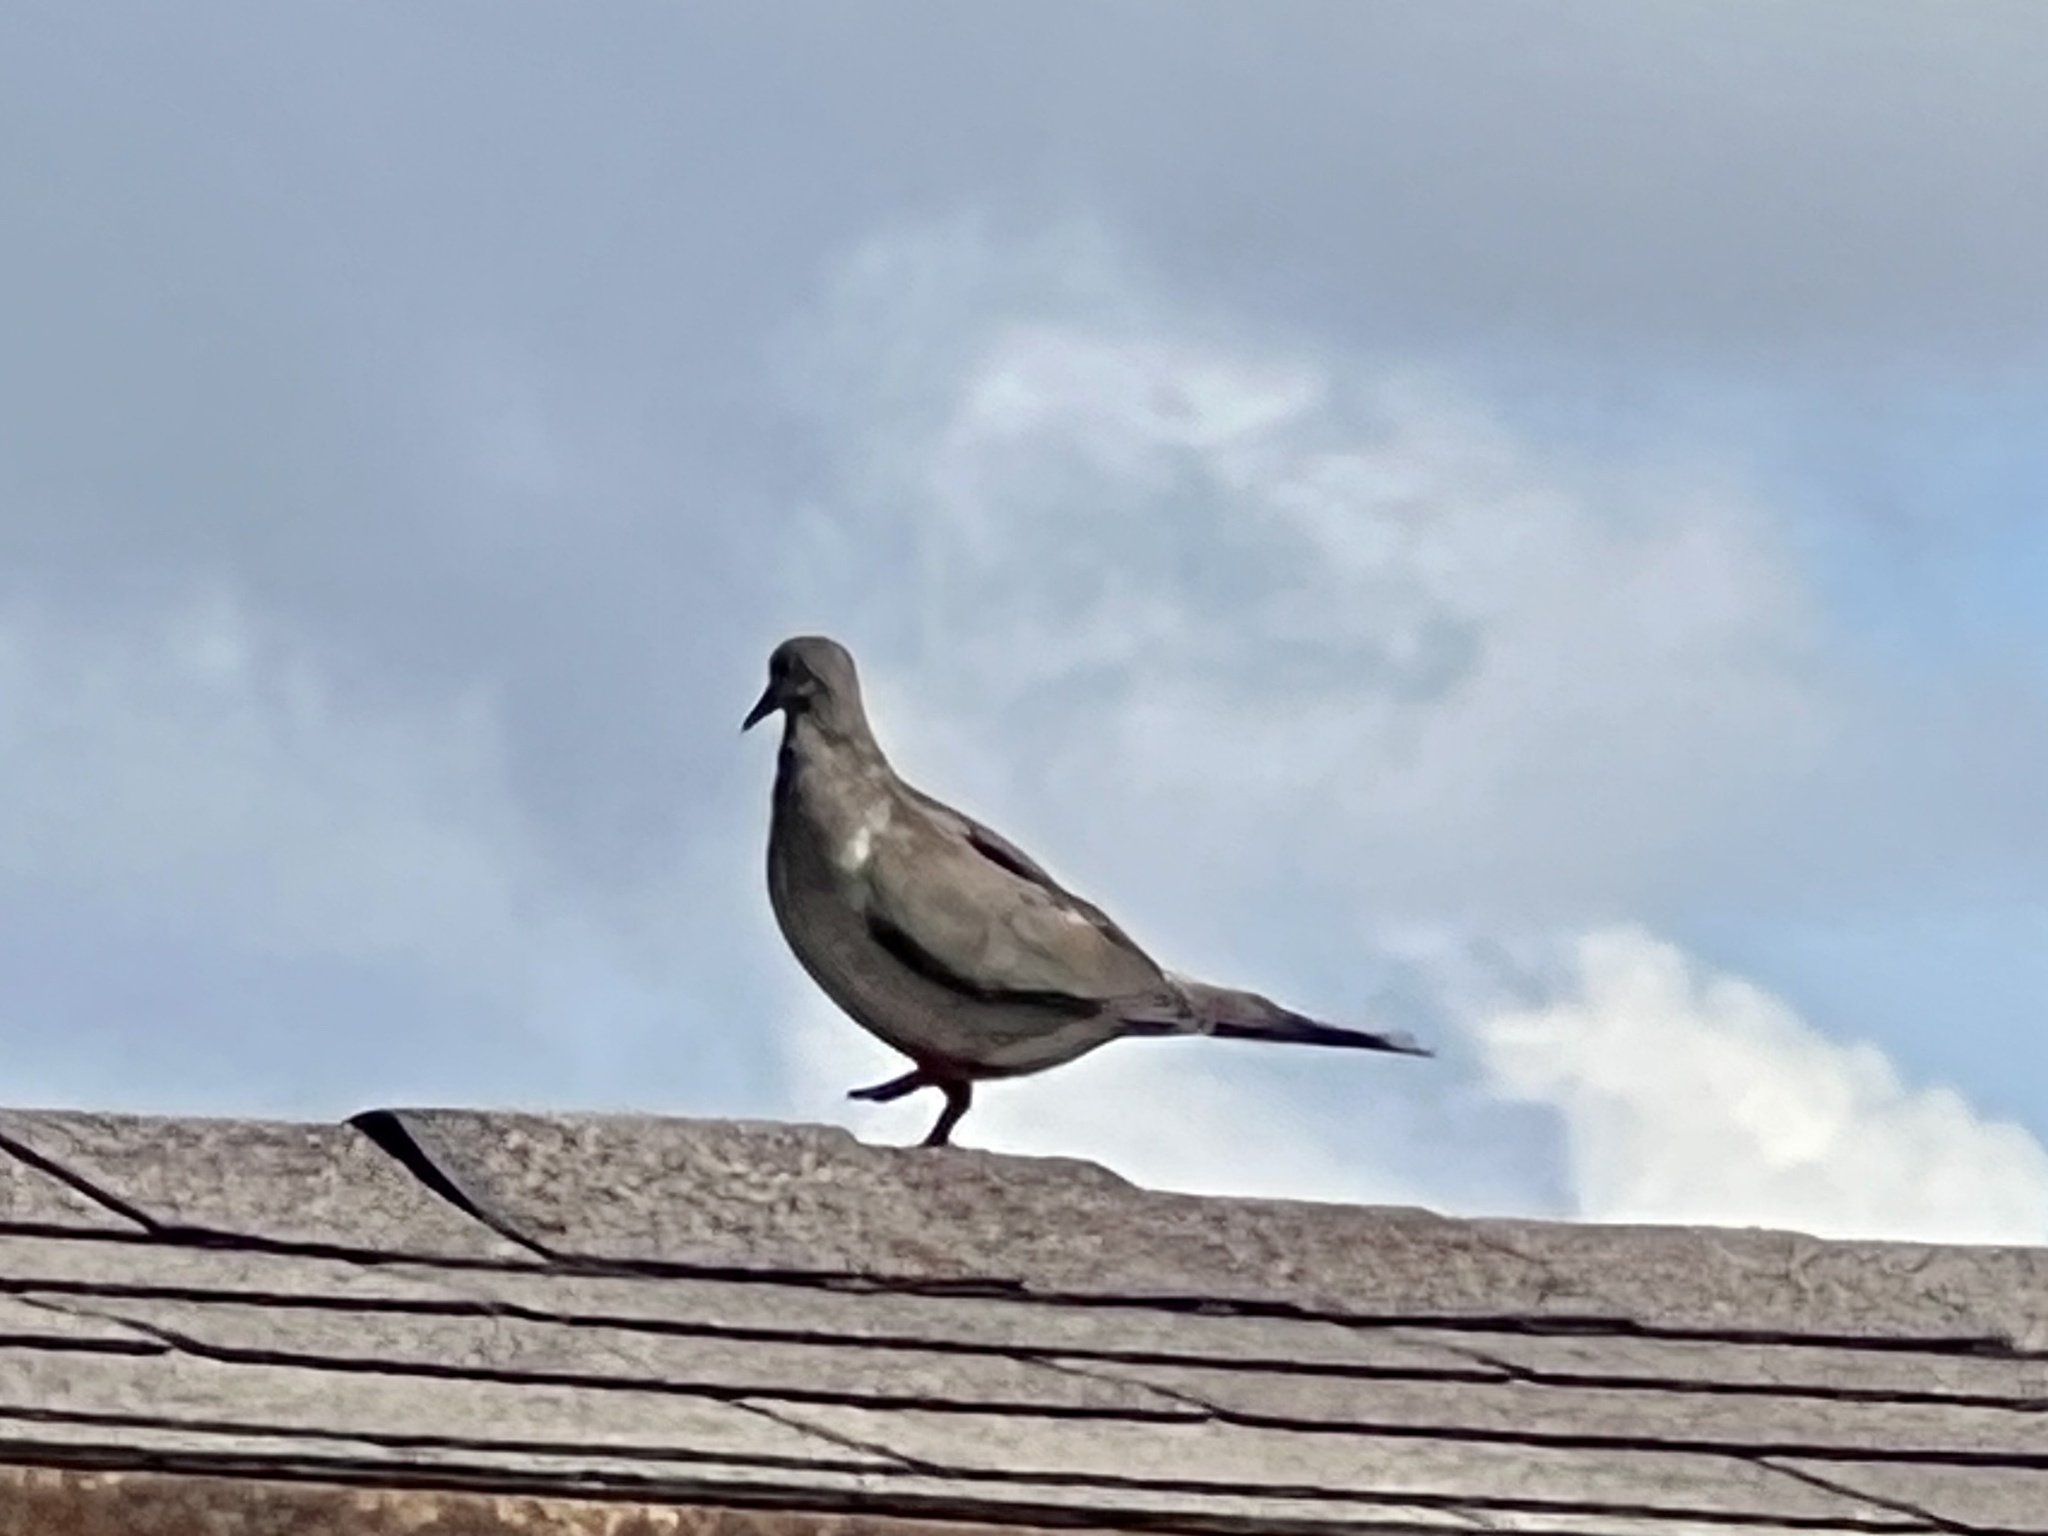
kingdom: Animalia
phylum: Chordata
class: Aves
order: Columbiformes
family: Columbidae
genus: Zenaida
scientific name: Zenaida macroura
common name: Mourning dove
